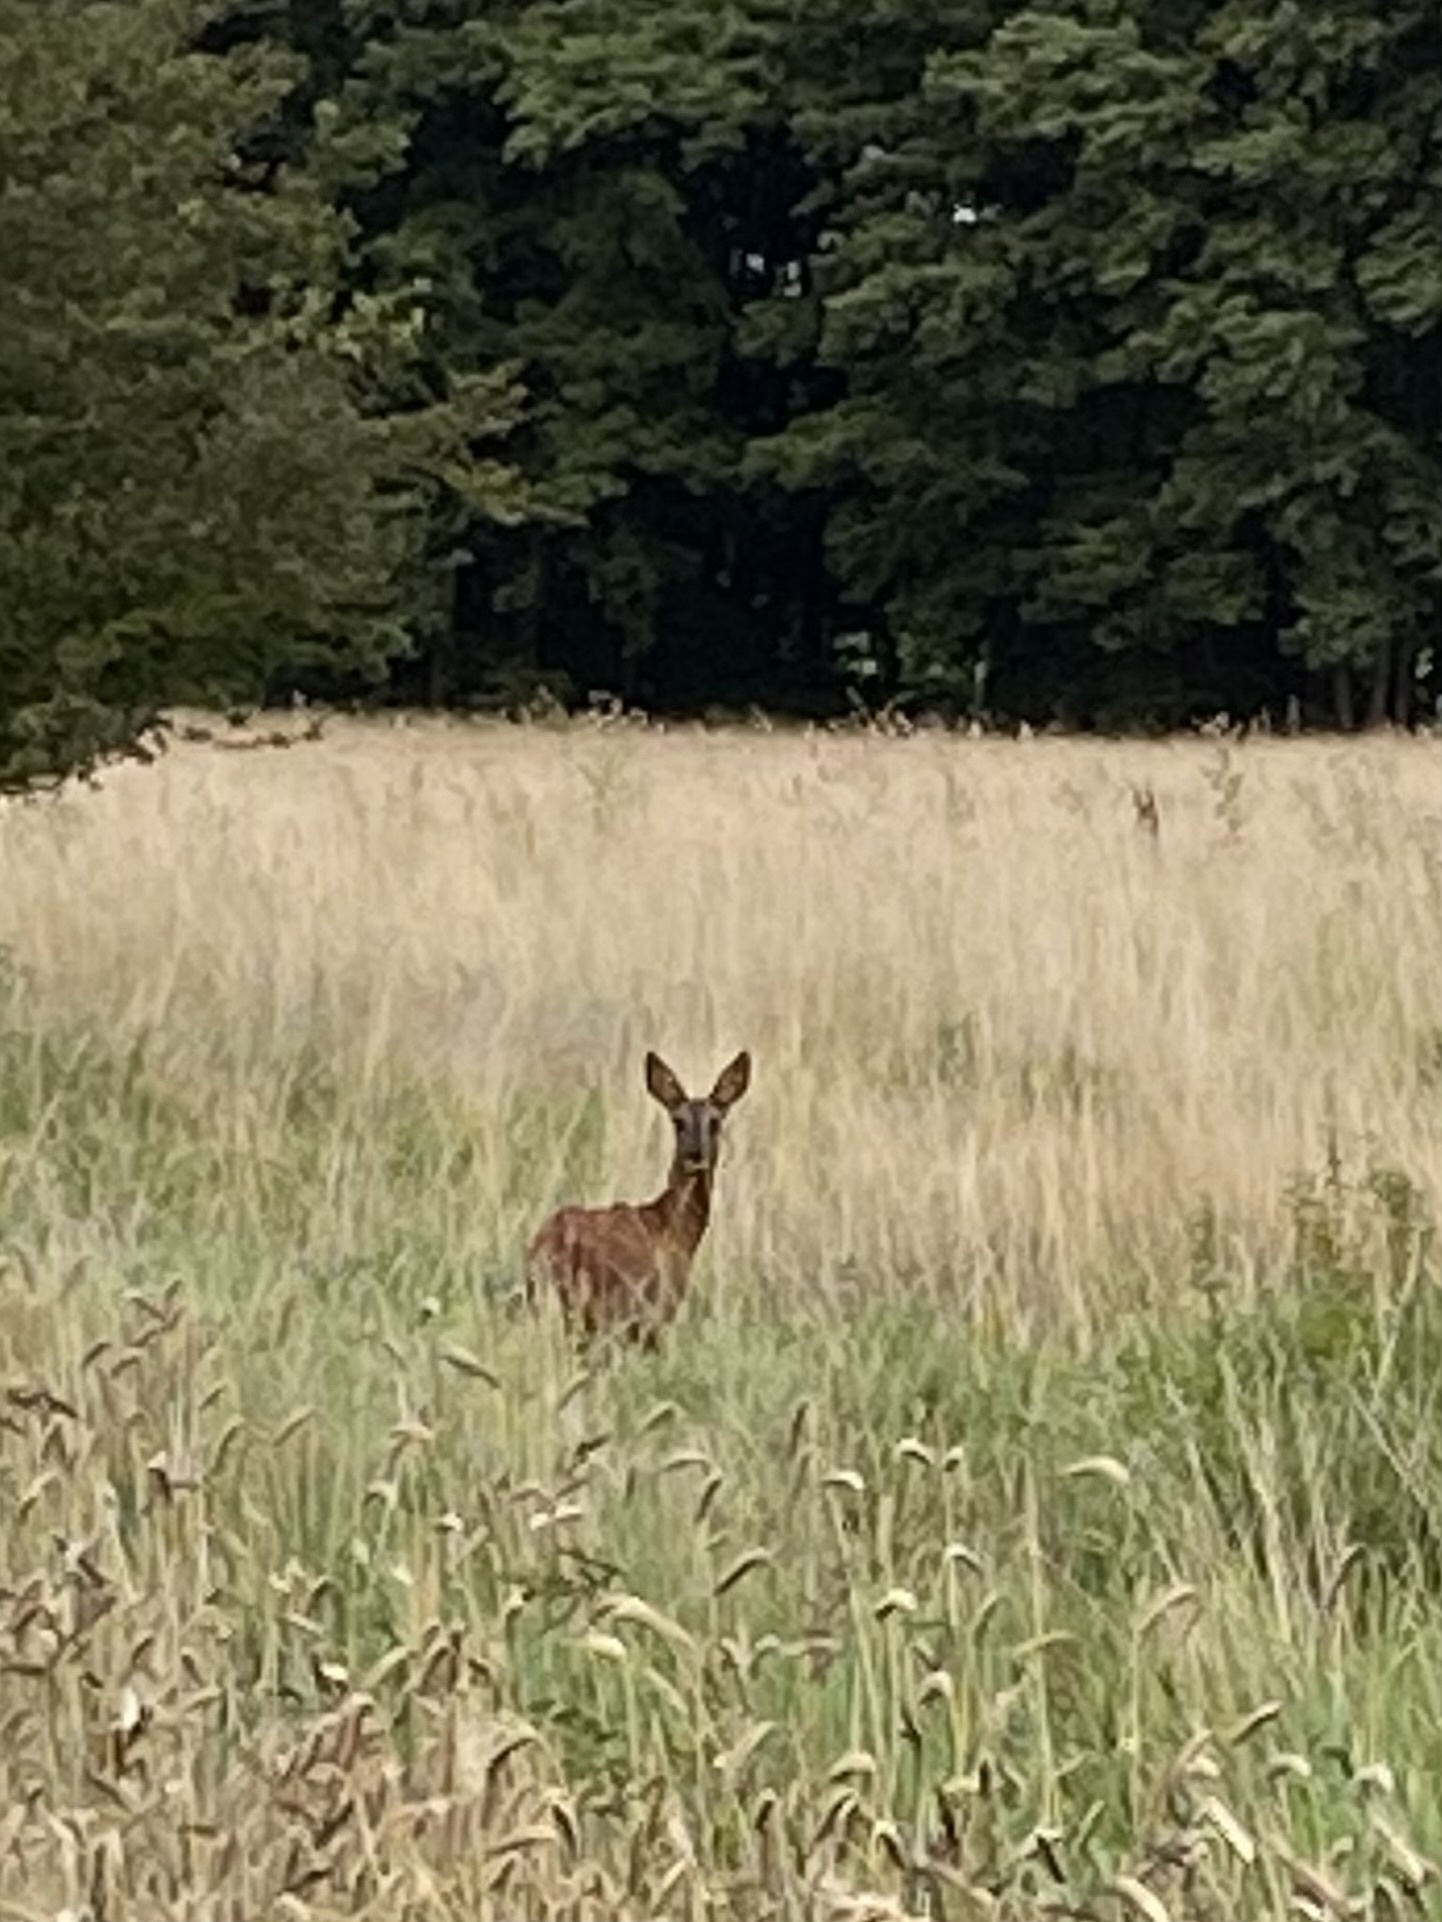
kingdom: Animalia
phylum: Chordata
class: Mammalia
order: Artiodactyla
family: Cervidae
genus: Capreolus
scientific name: Capreolus capreolus
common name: Western roe deer
